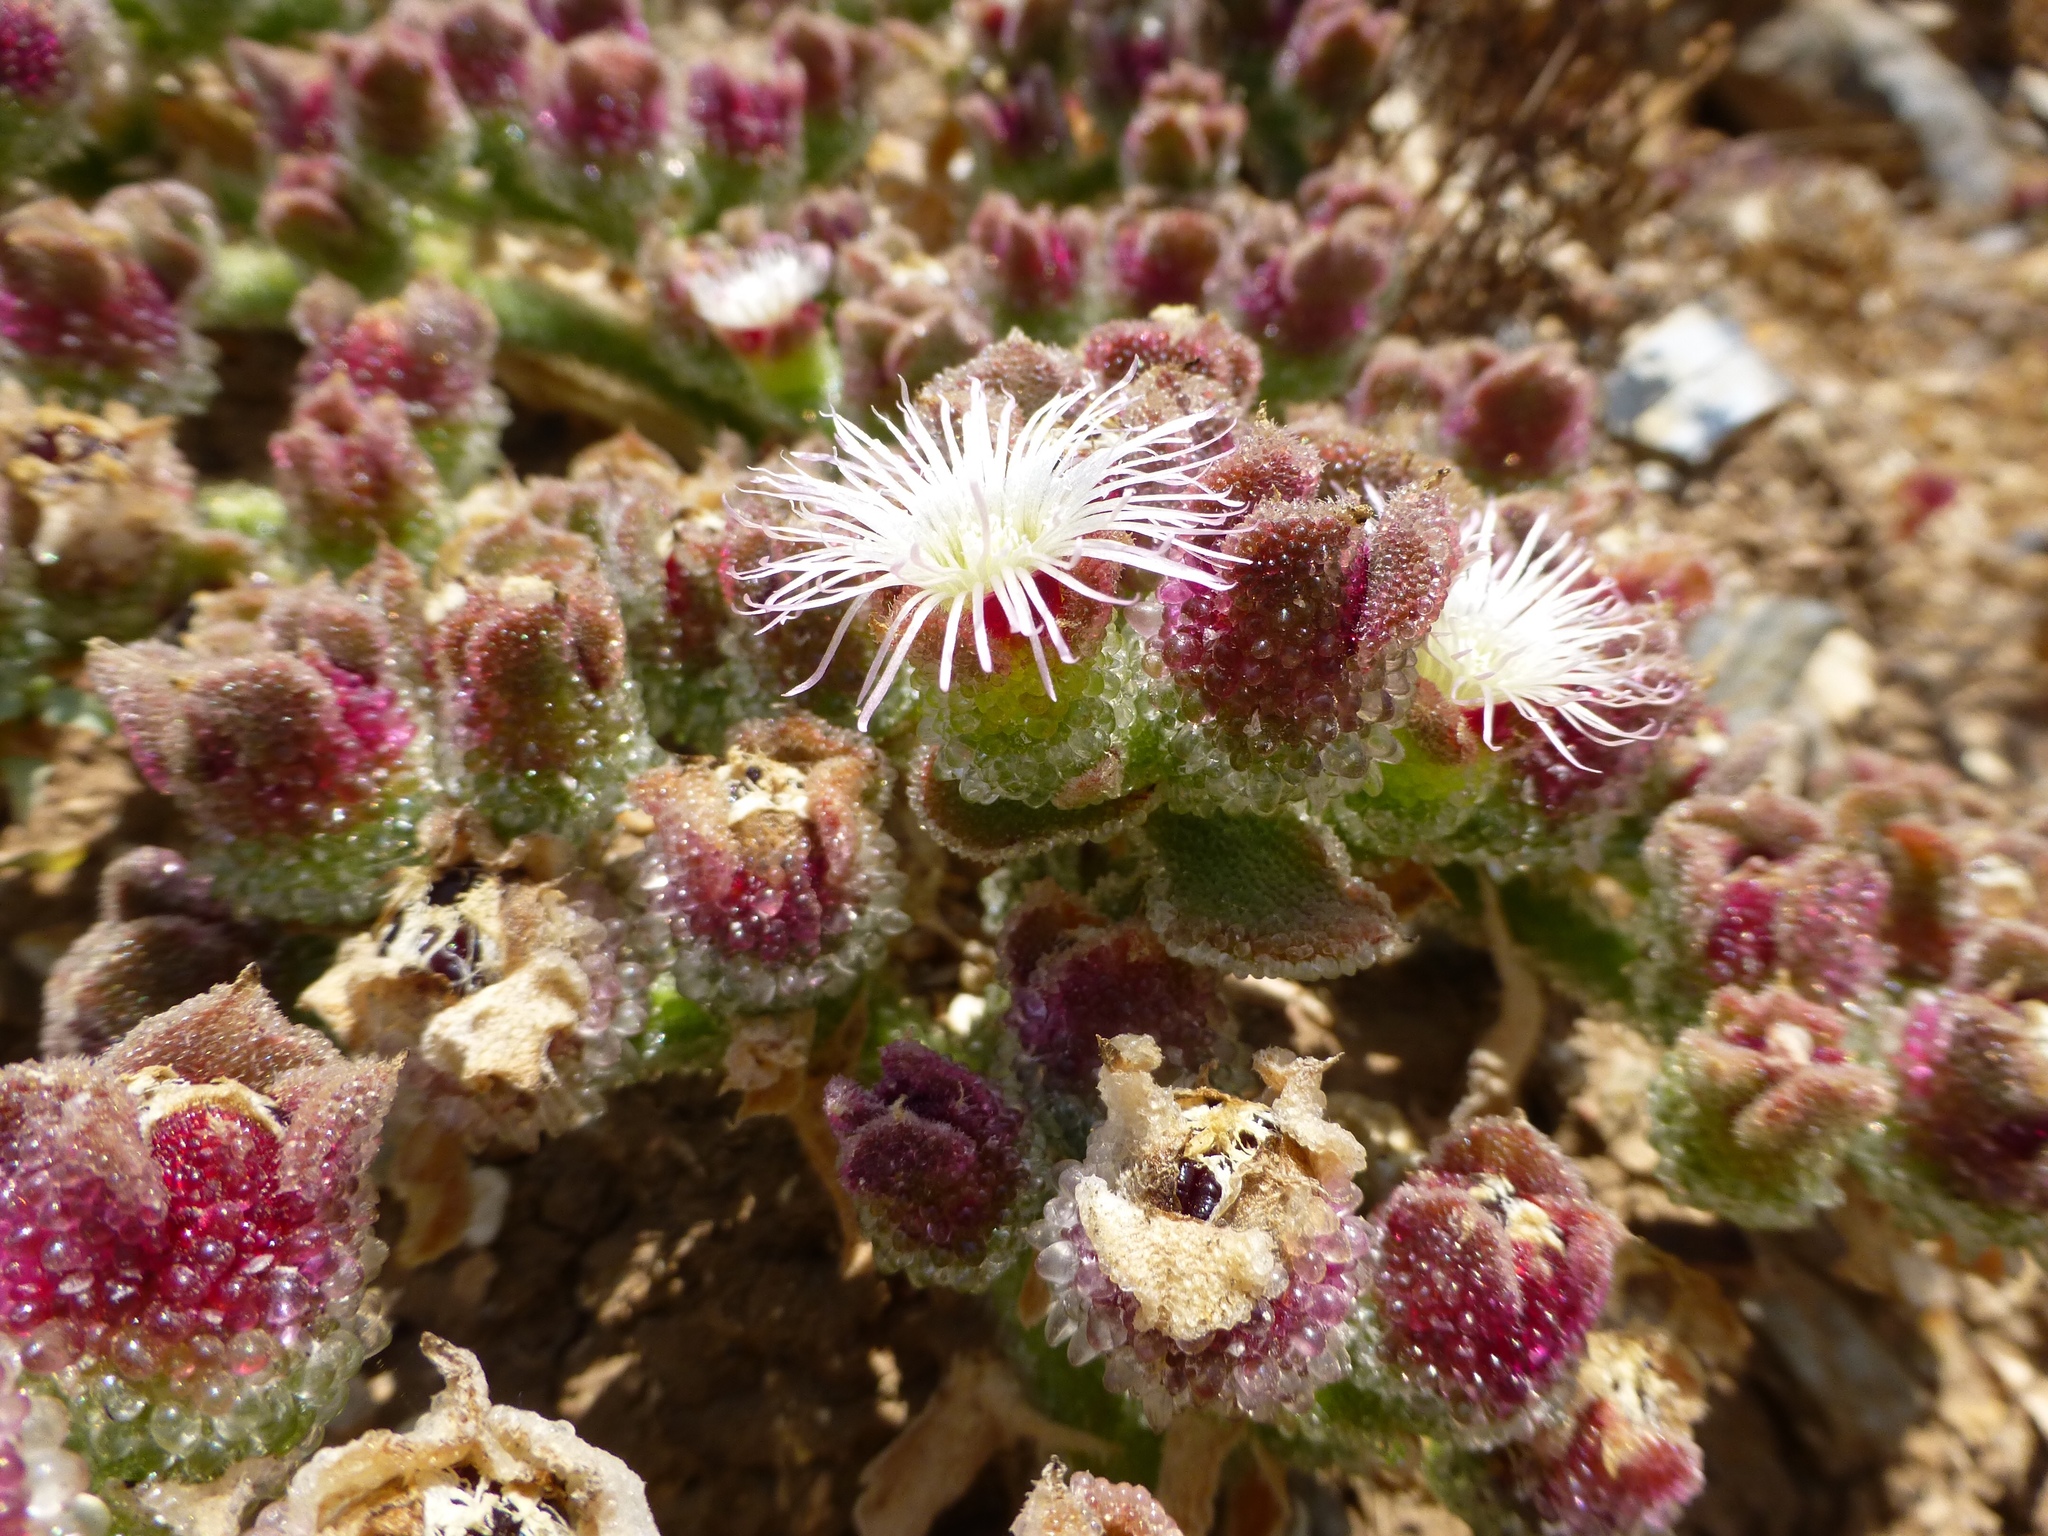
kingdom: Plantae
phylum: Tracheophyta
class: Magnoliopsida
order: Caryophyllales
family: Aizoaceae
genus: Mesembryanthemum
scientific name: Mesembryanthemum crystallinum
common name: Common iceplant
